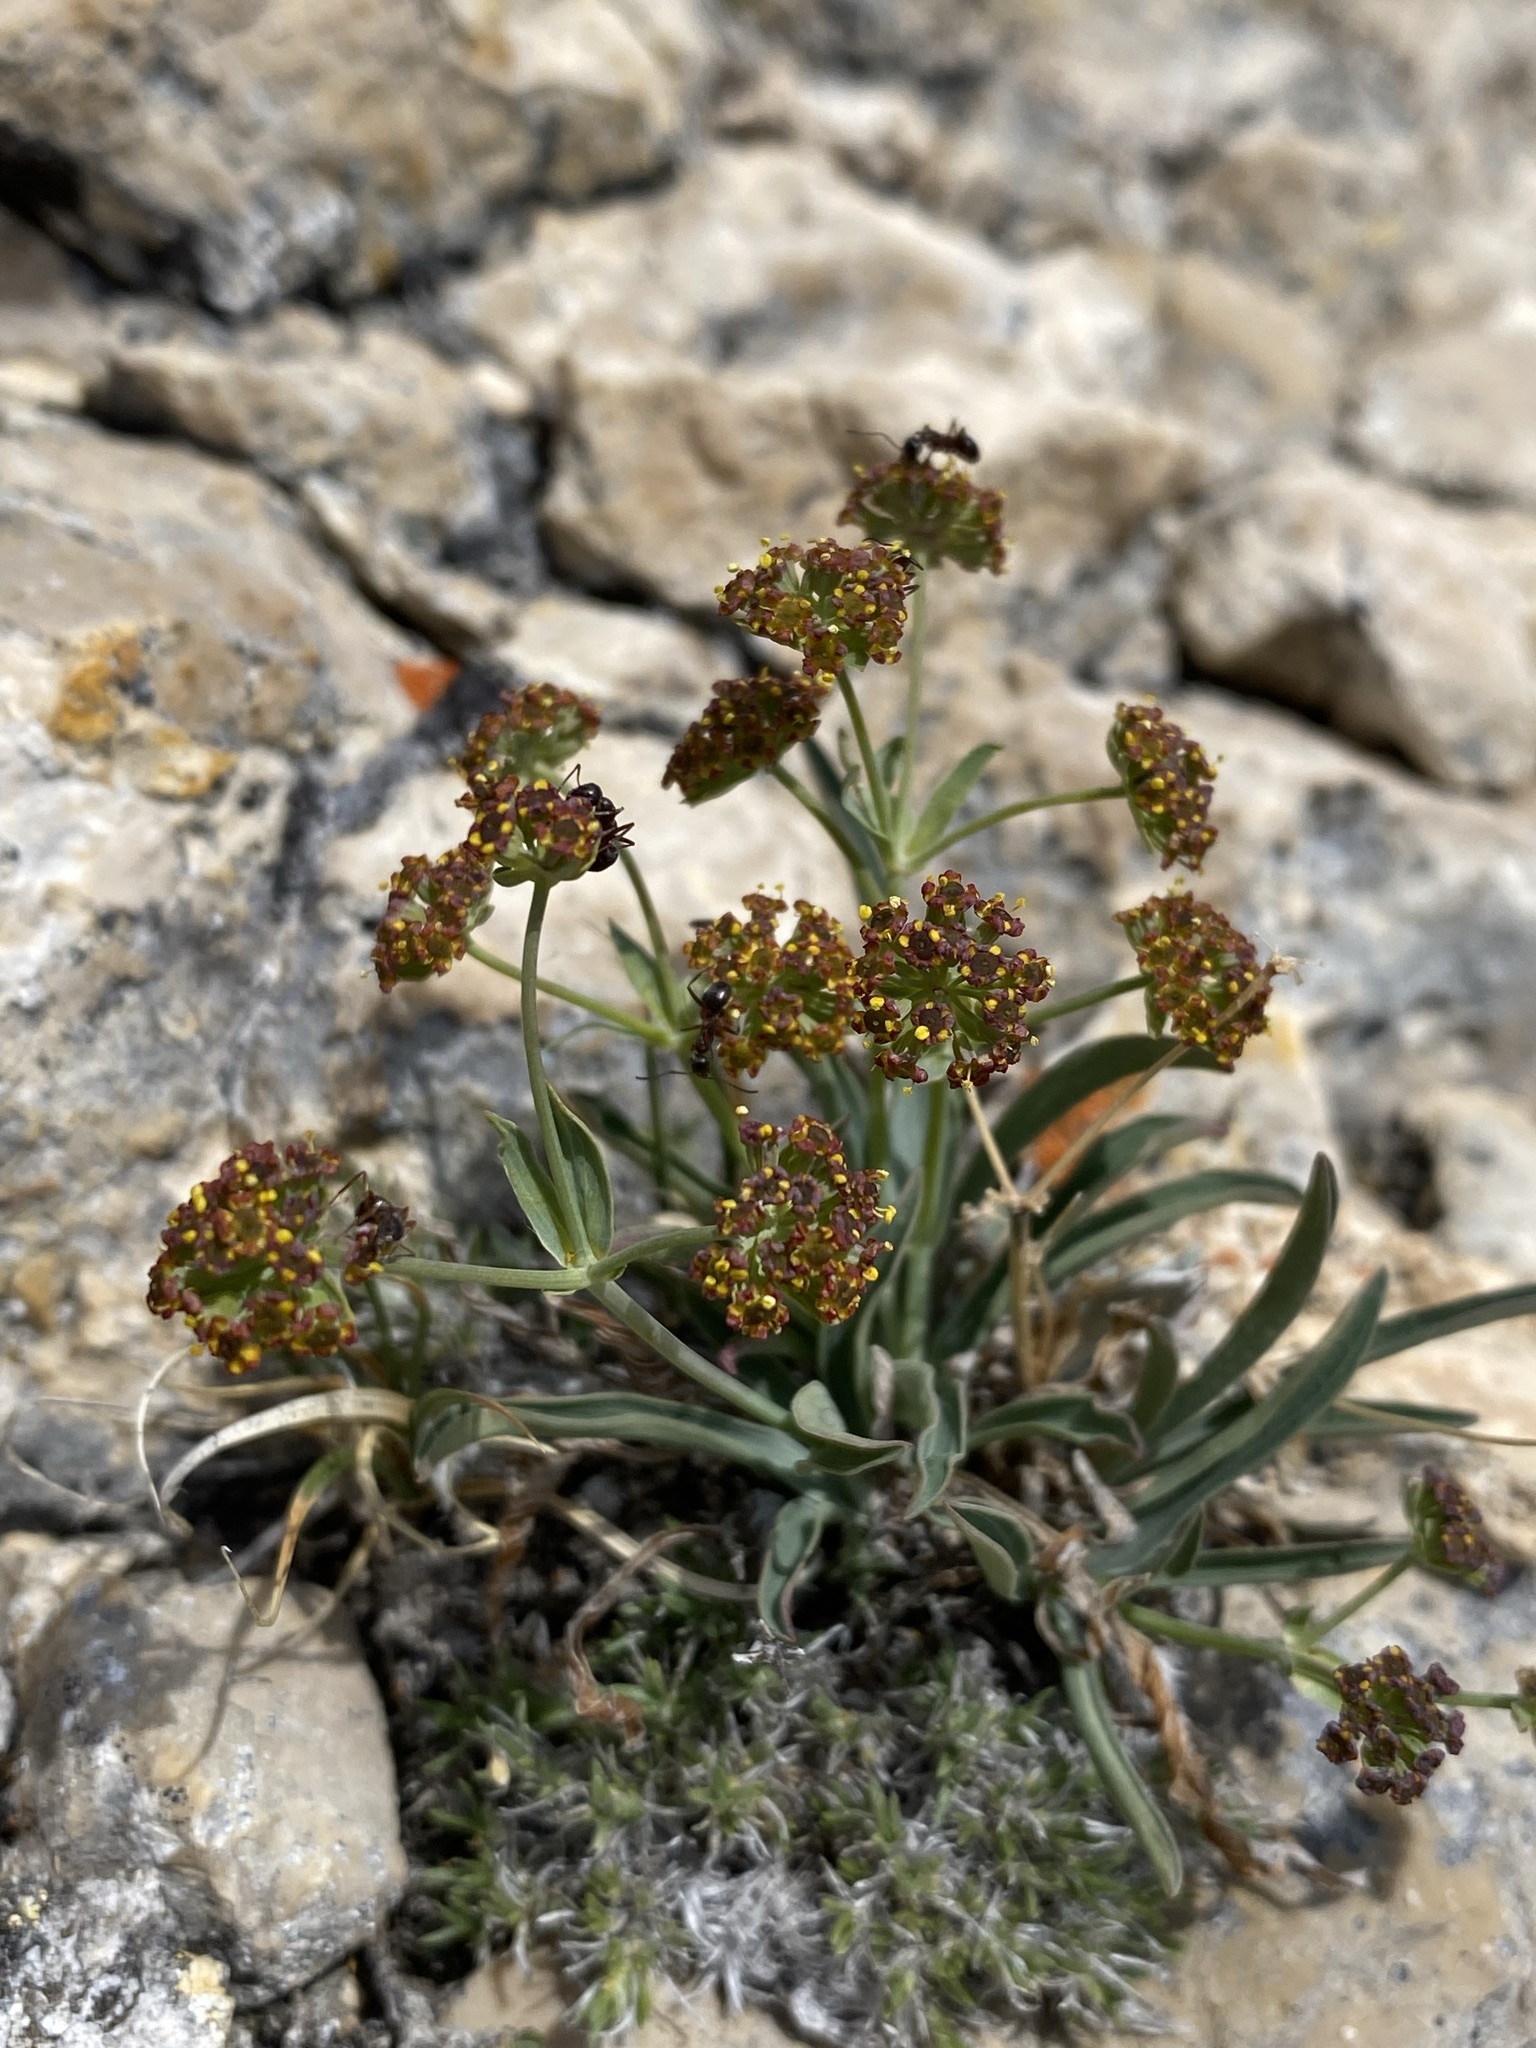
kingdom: Plantae
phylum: Tracheophyta
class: Magnoliopsida
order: Apiales
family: Apiaceae
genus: Bupleurum
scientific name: Bupleurum americanum
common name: American thoroughwax
